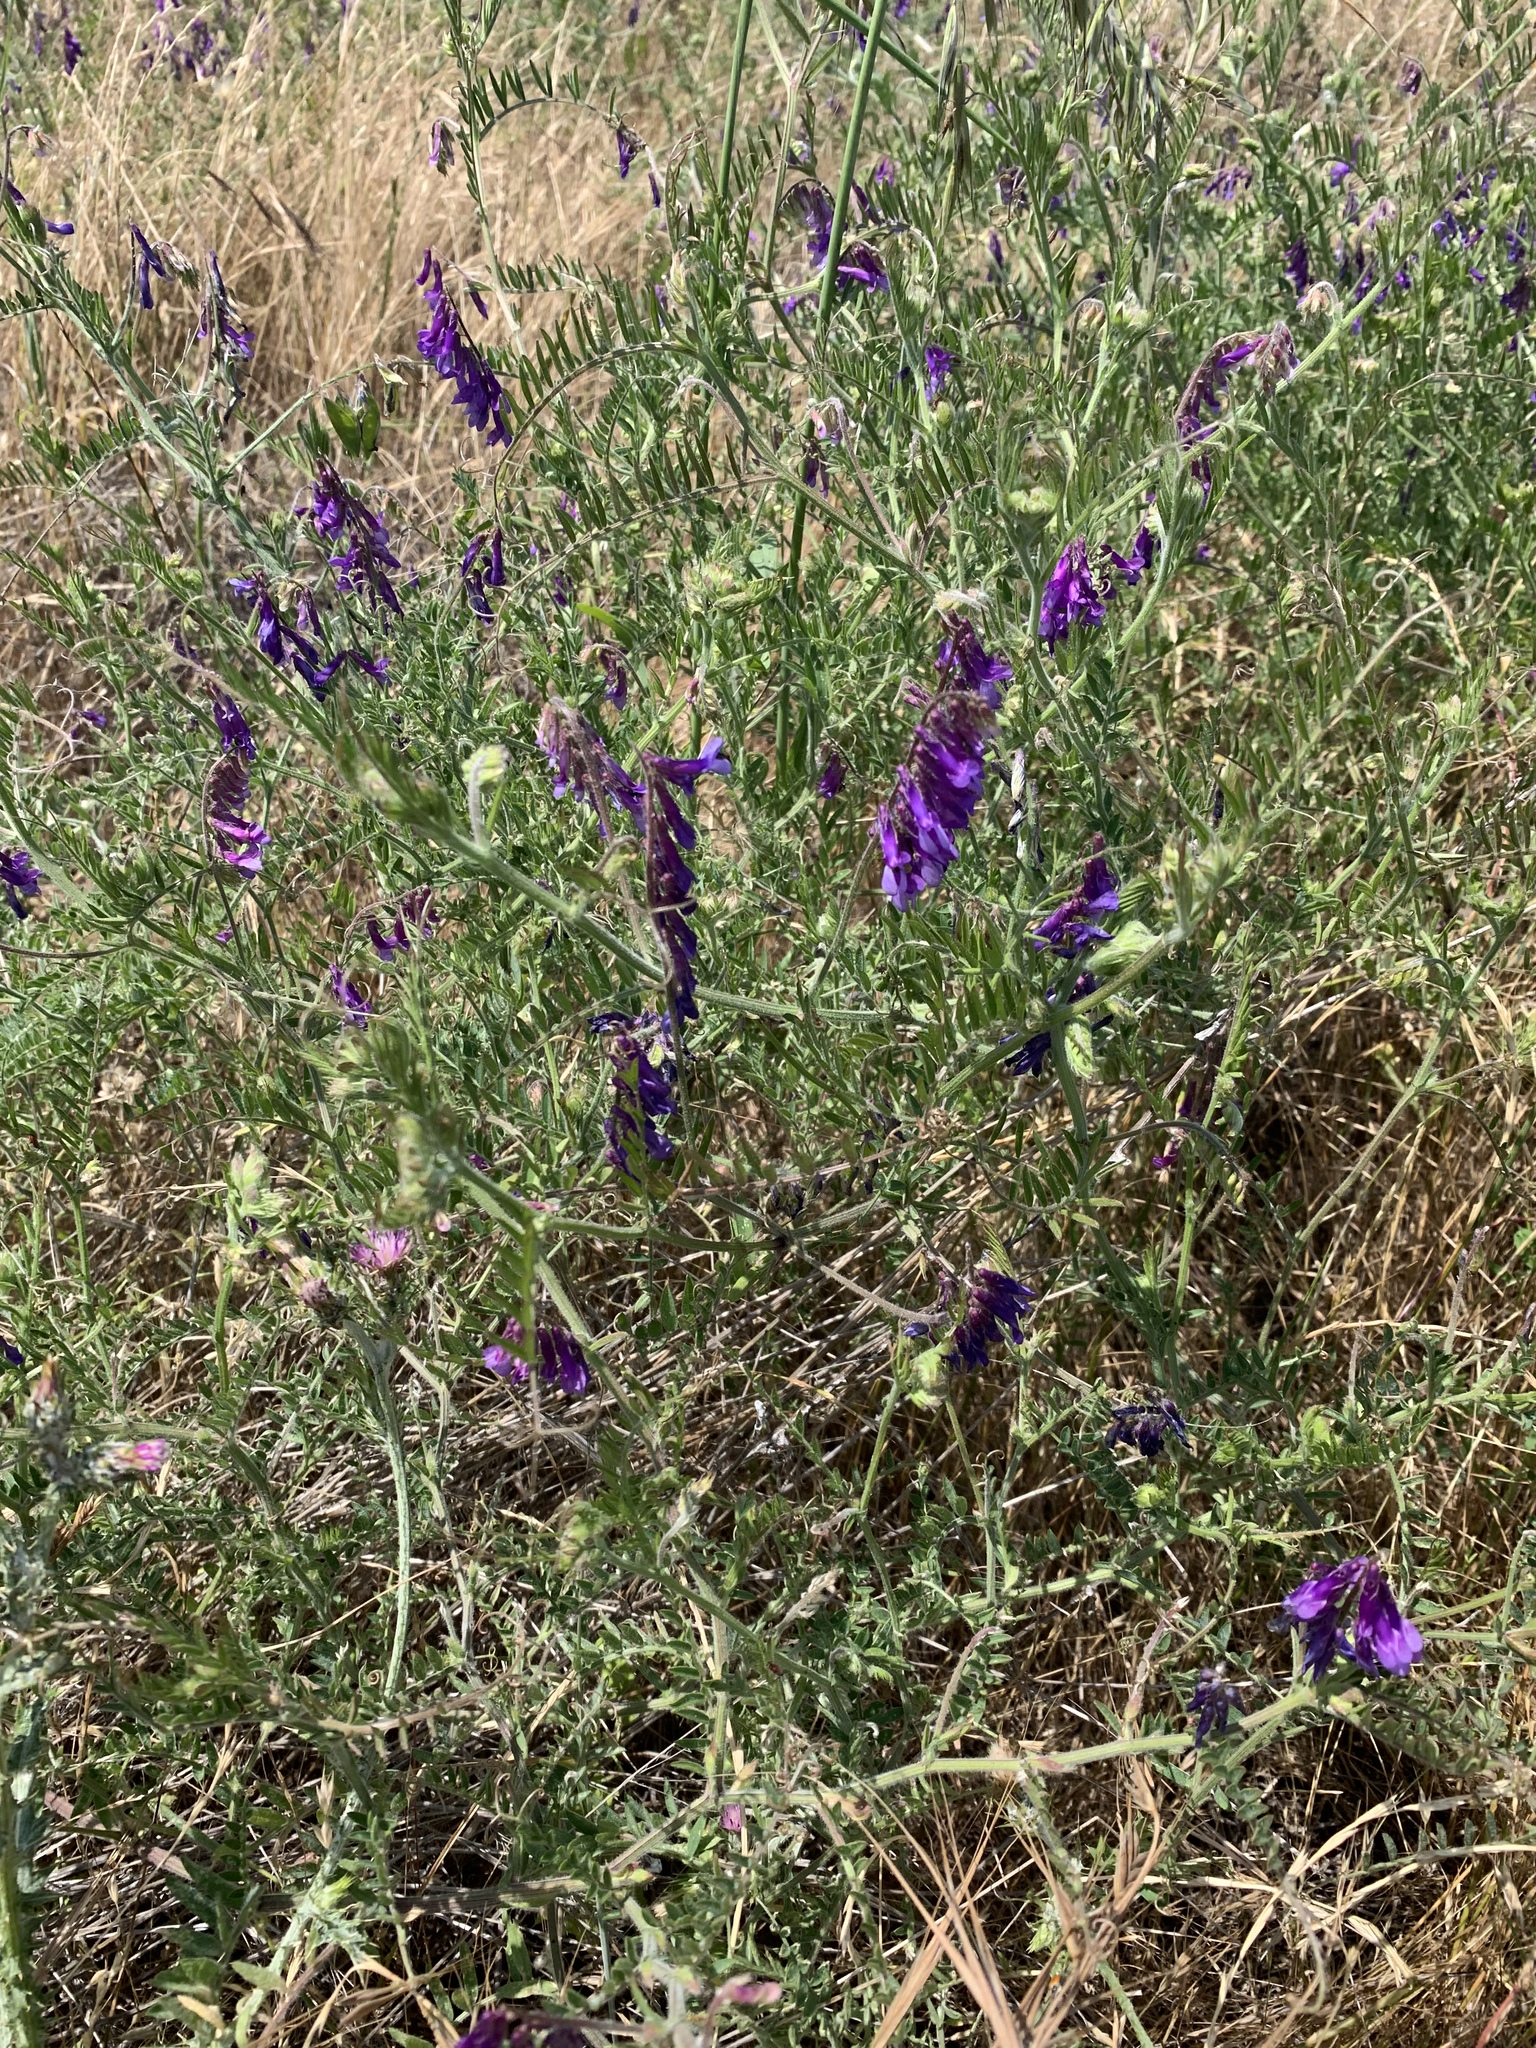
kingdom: Plantae
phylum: Tracheophyta
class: Magnoliopsida
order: Fabales
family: Fabaceae
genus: Vicia
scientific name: Vicia villosa
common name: Fodder vetch
